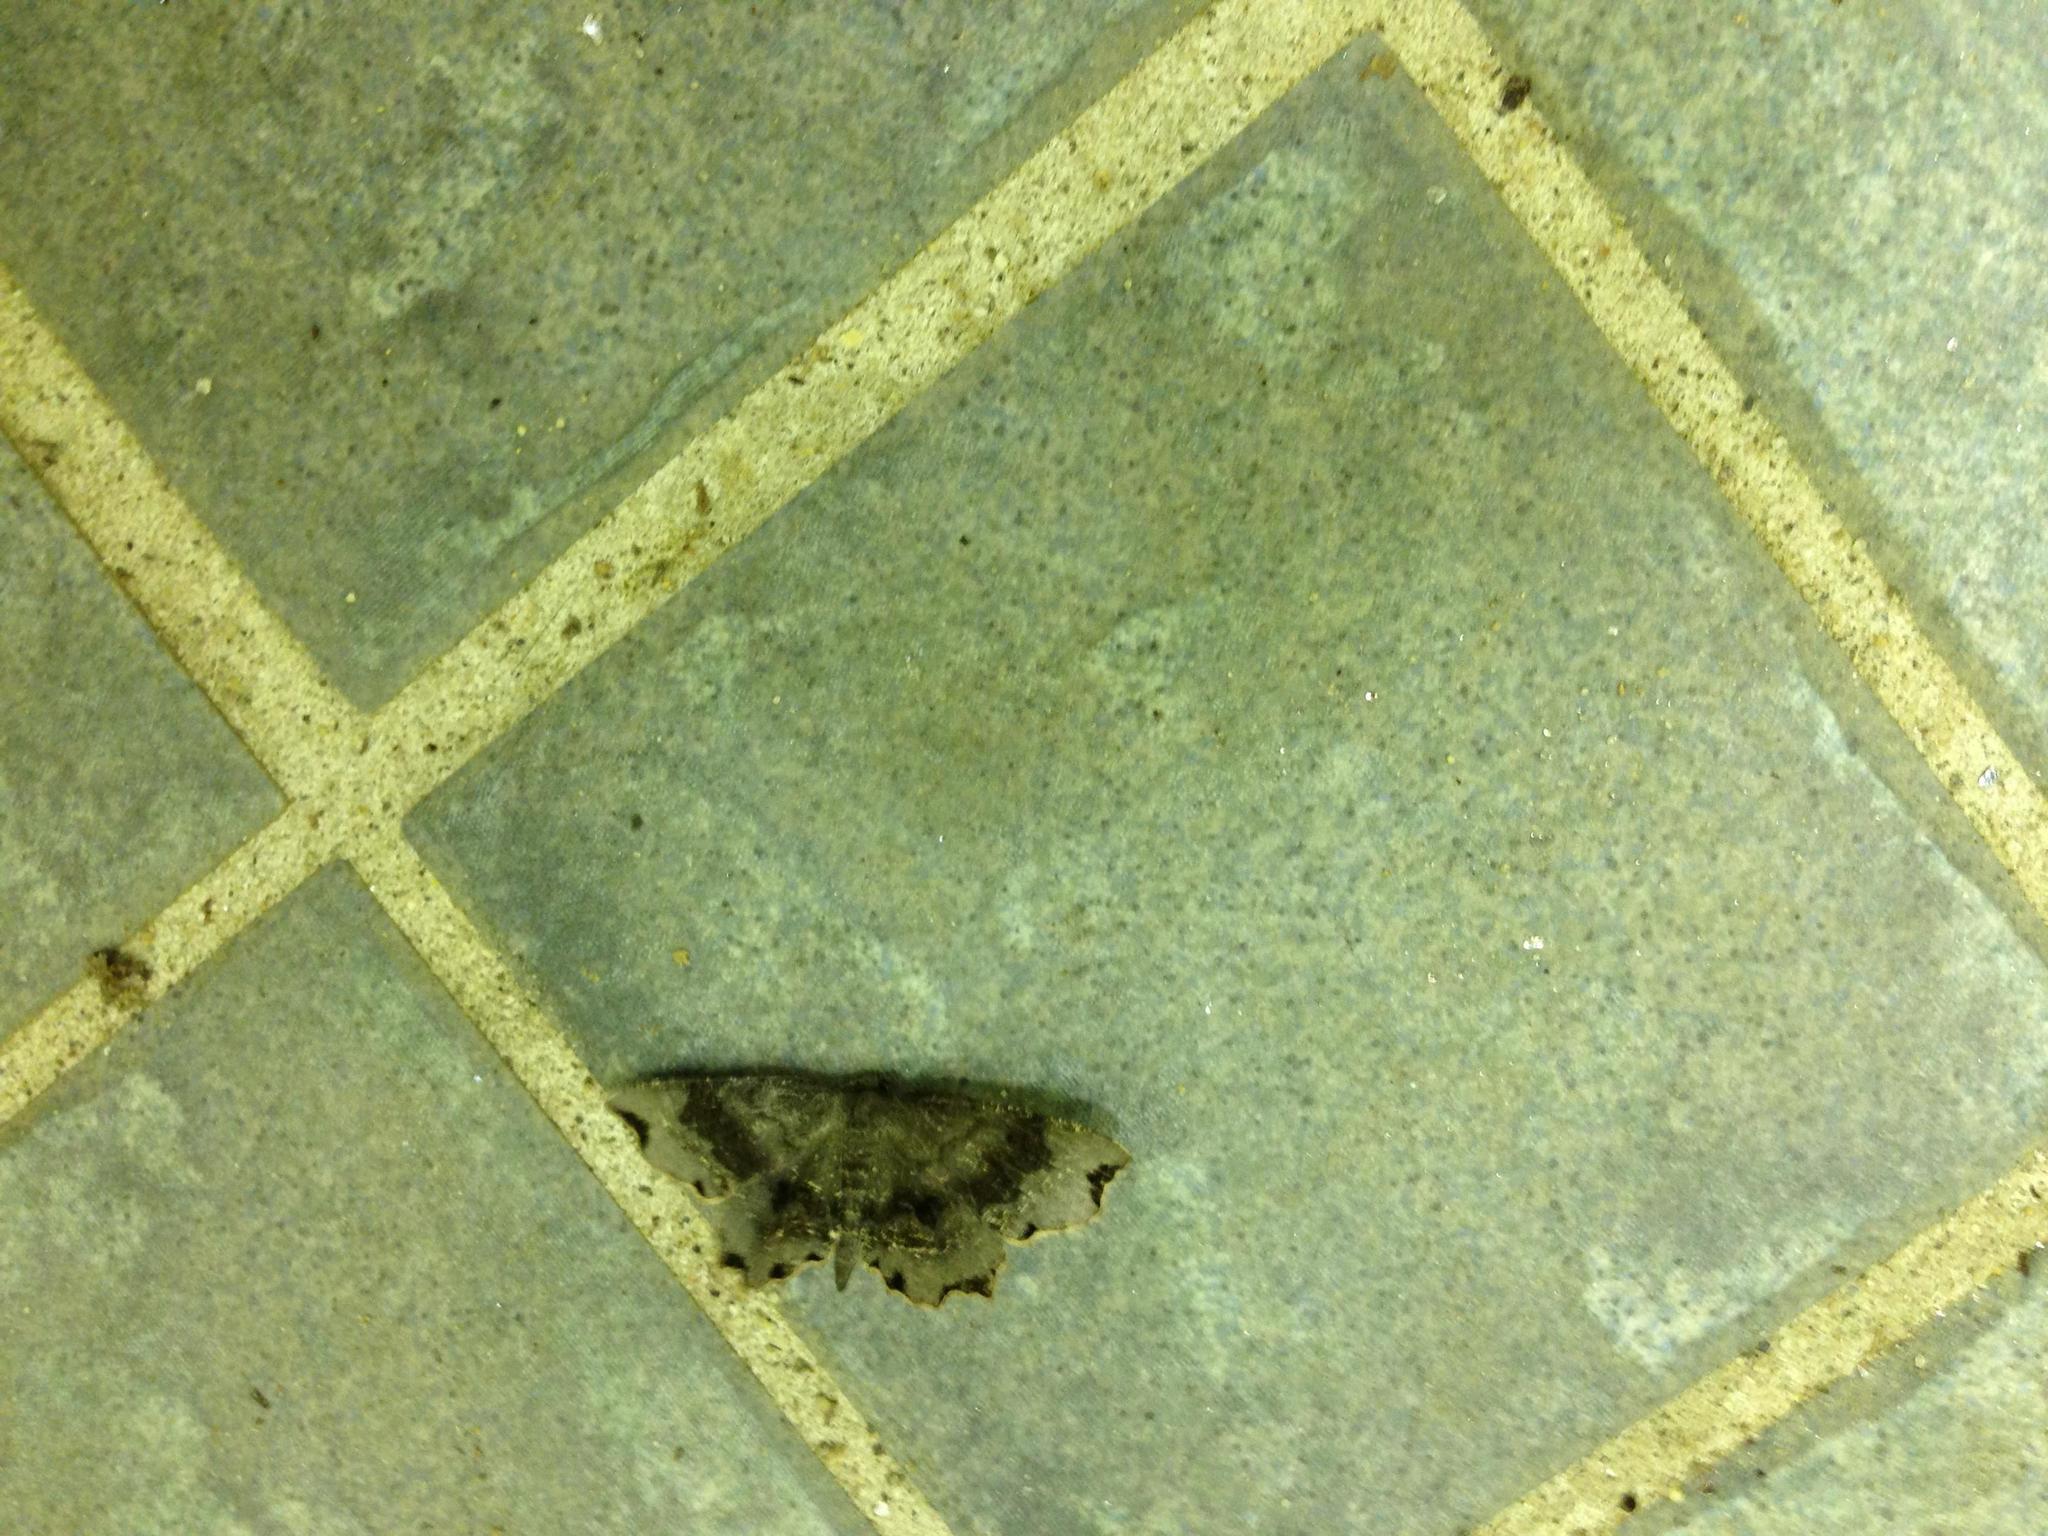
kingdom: Animalia
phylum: Arthropoda
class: Insecta
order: Lepidoptera
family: Geometridae
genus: Cepphis
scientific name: Cepphis decoloraria
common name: Dark scallop moth
